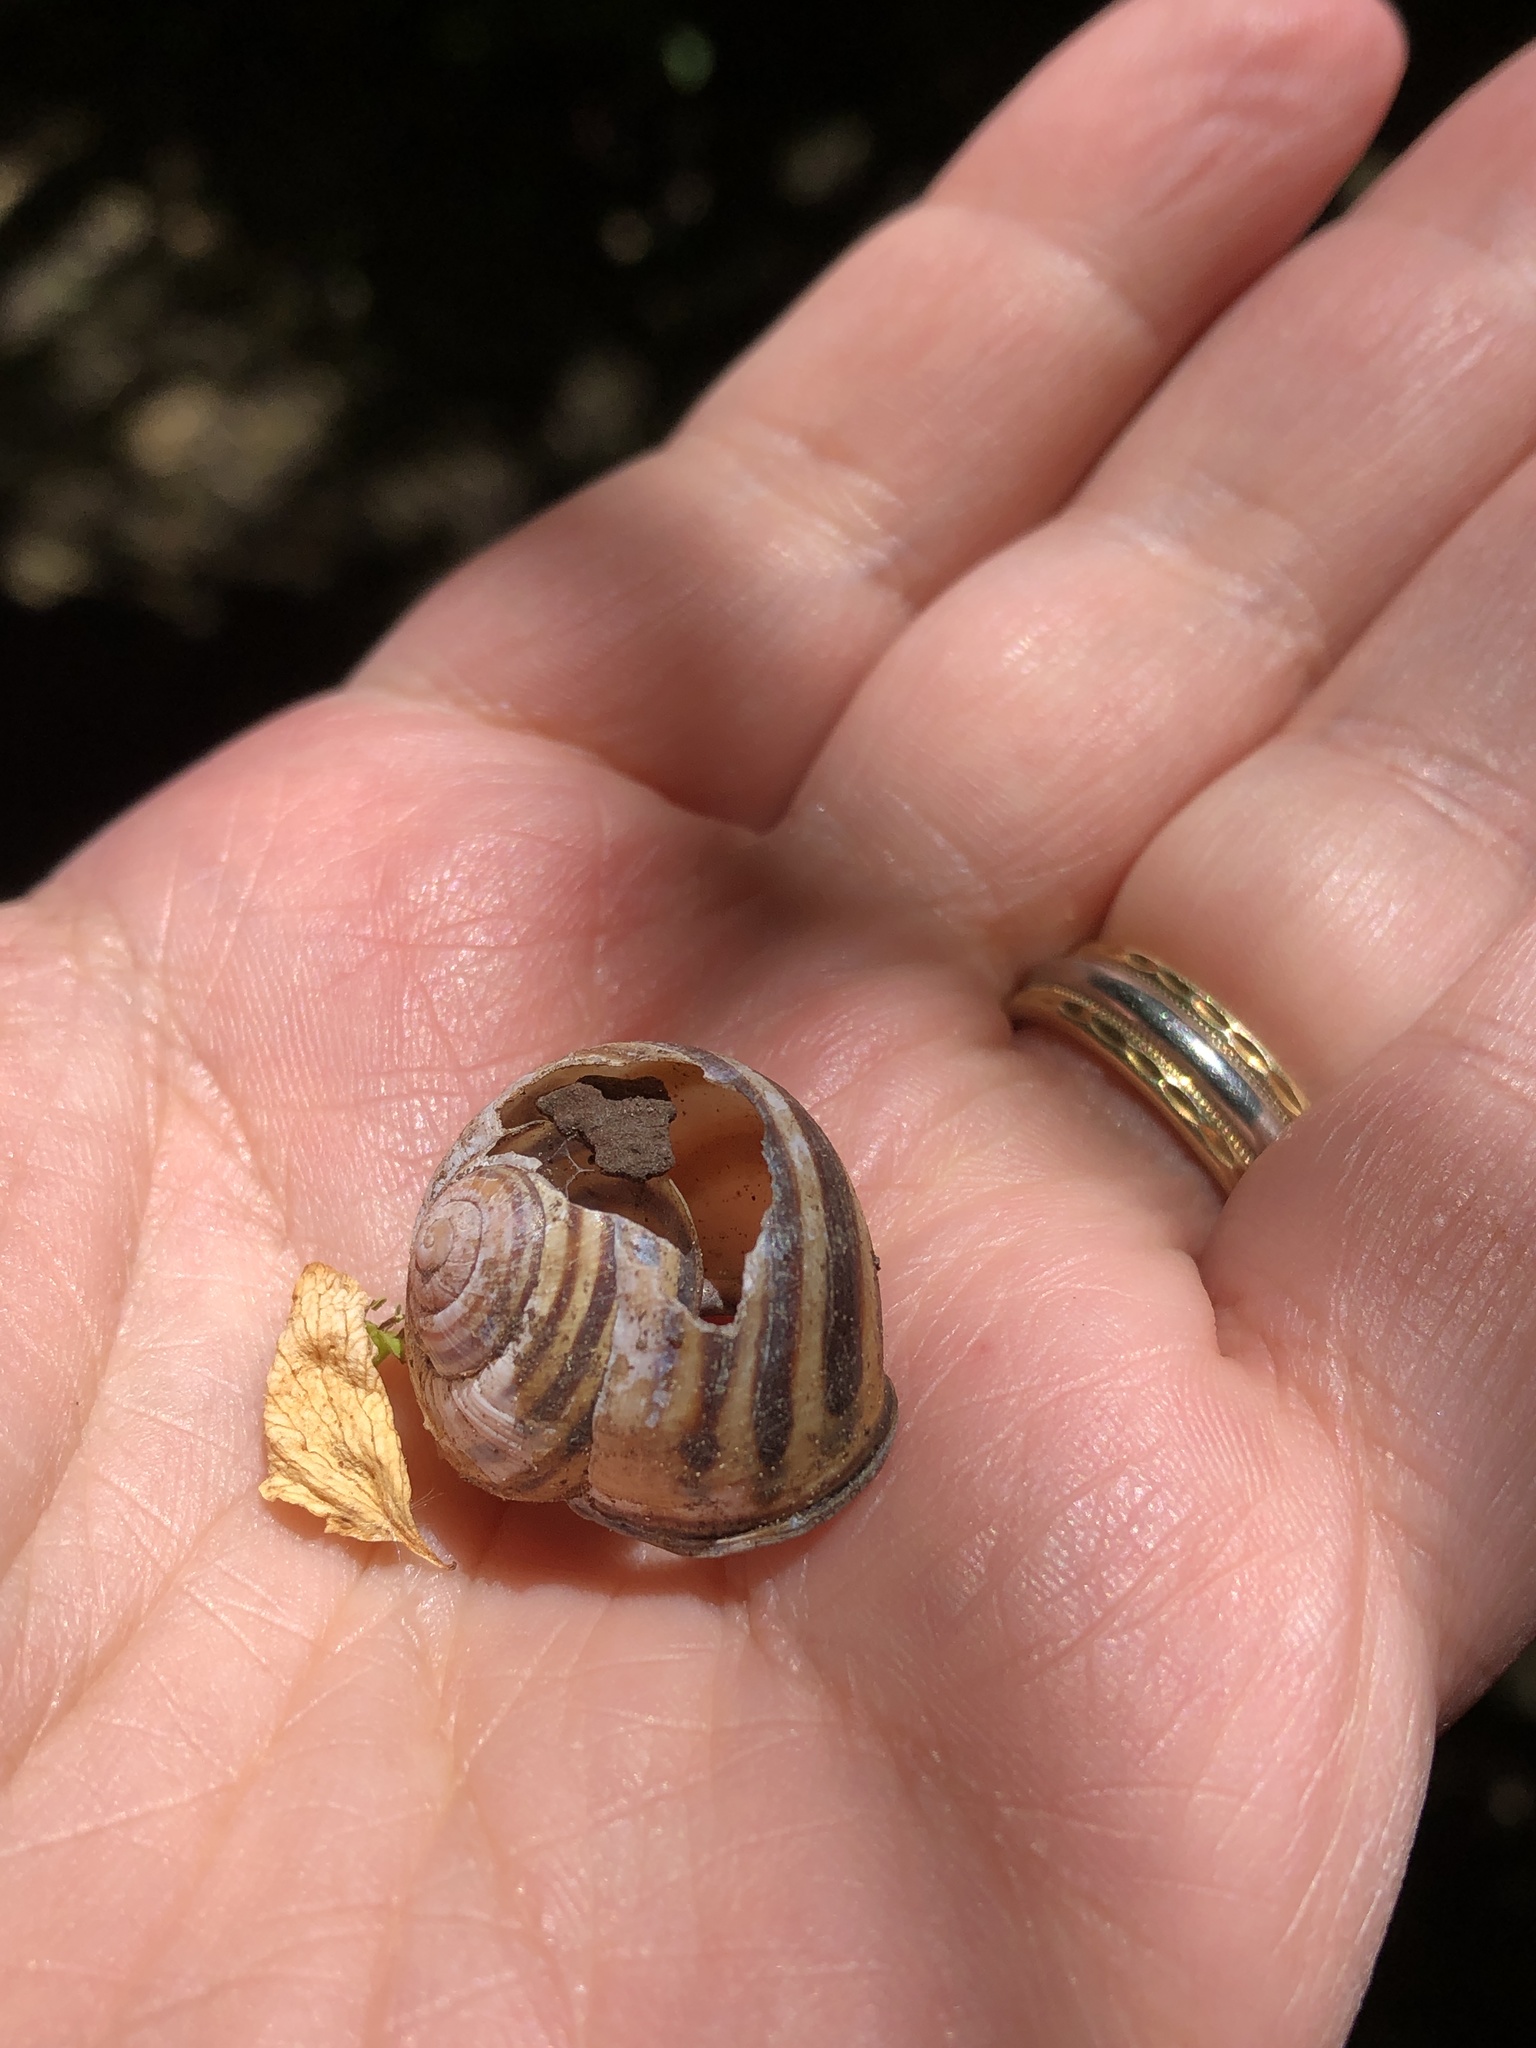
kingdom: Animalia
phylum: Mollusca
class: Gastropoda
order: Stylommatophora
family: Helicidae
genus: Cepaea
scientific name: Cepaea nemoralis
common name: Grovesnail
